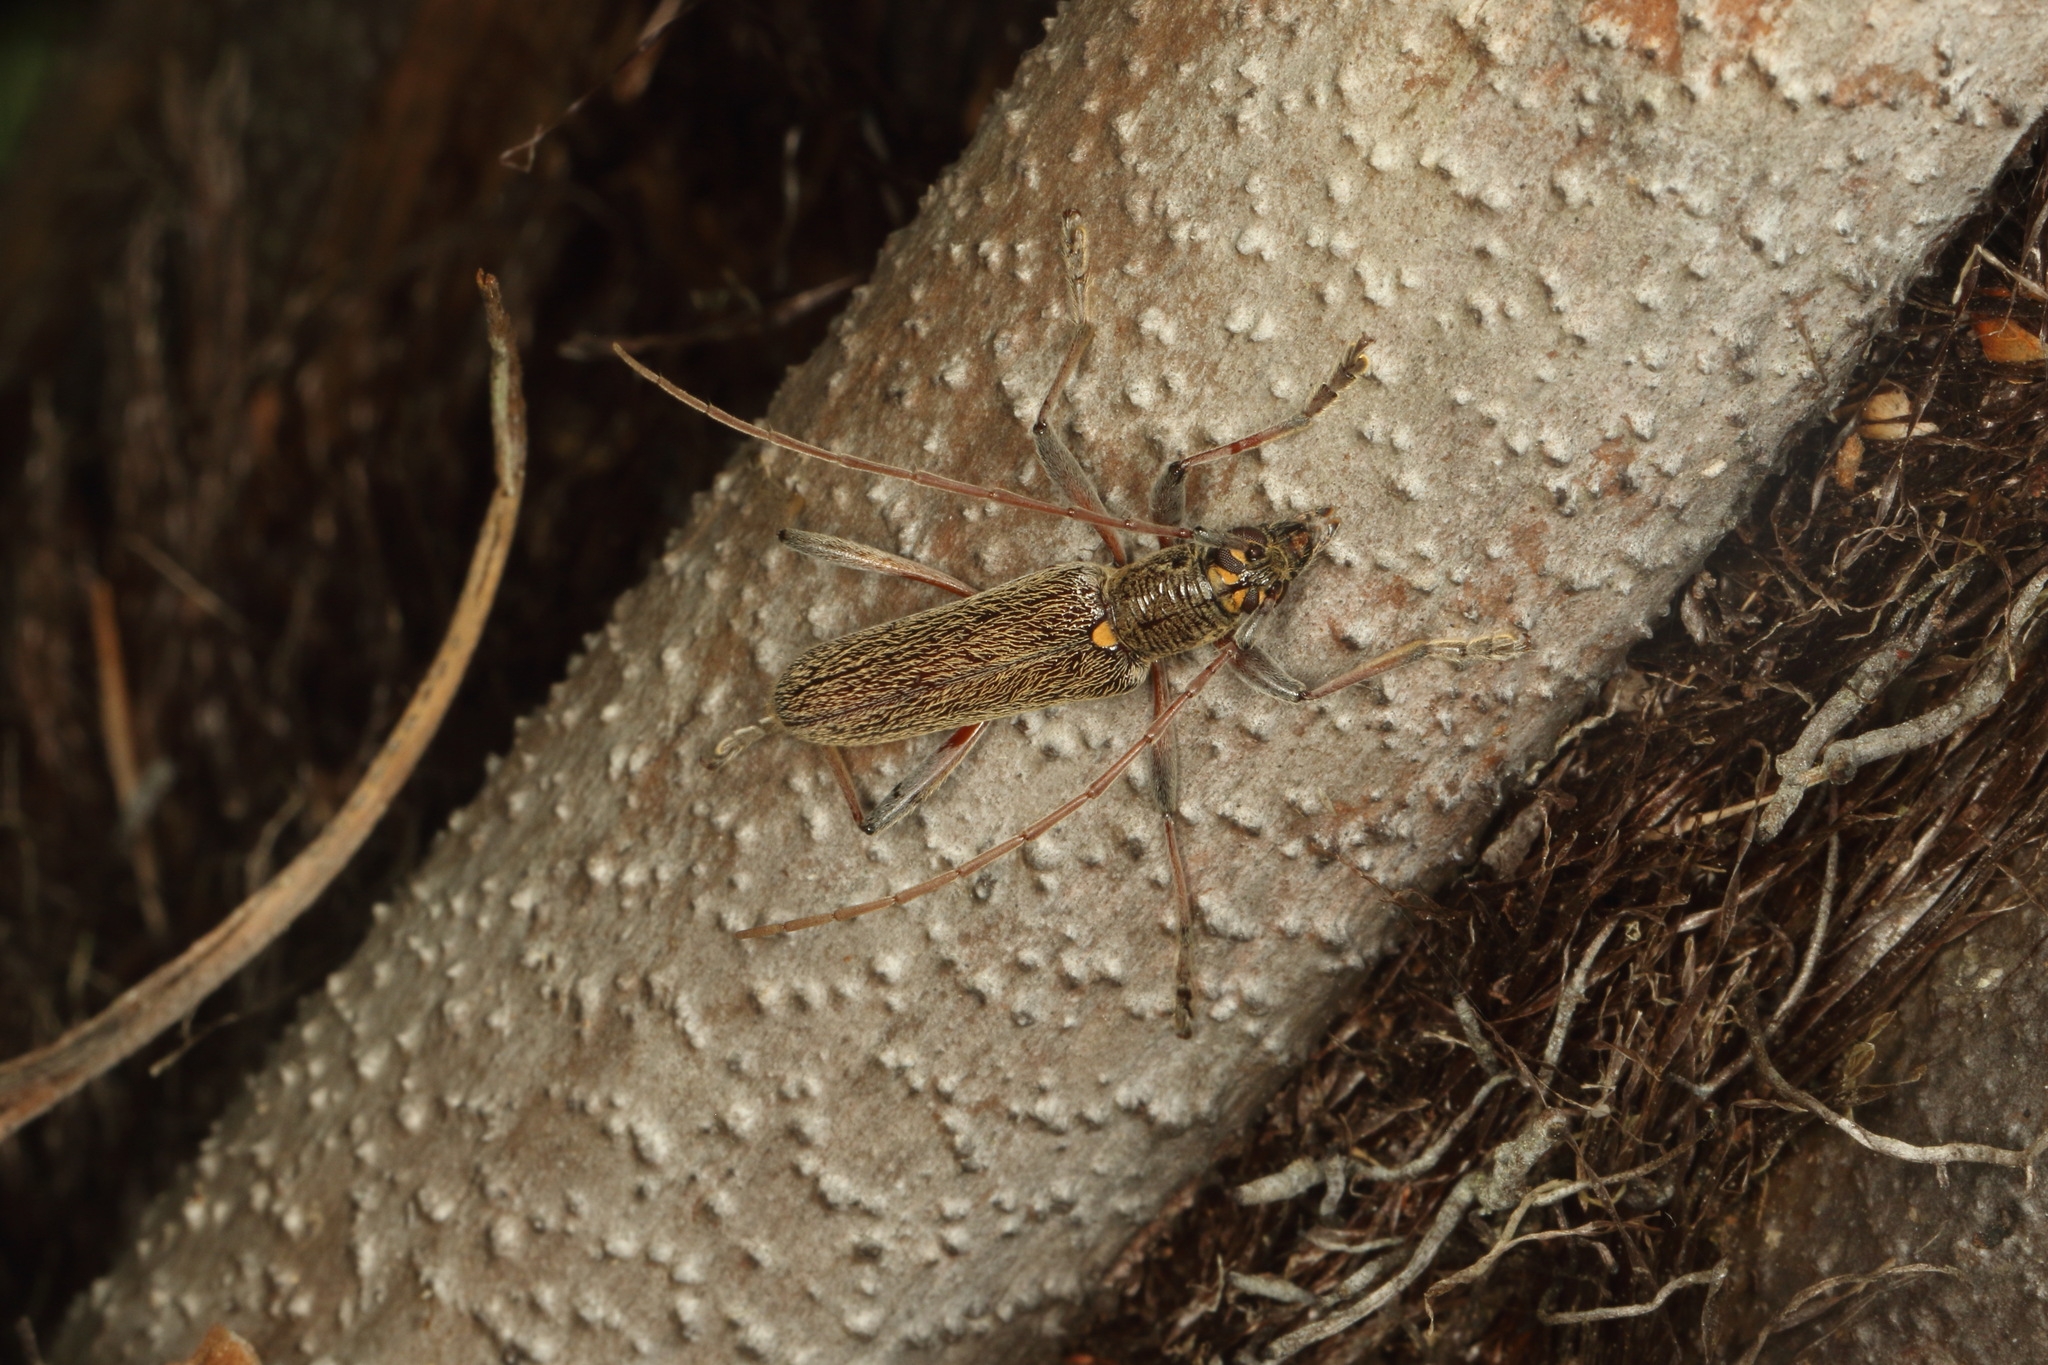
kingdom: Animalia
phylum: Arthropoda
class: Insecta
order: Coleoptera
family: Cerambycidae
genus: Oemona
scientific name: Oemona hirta
